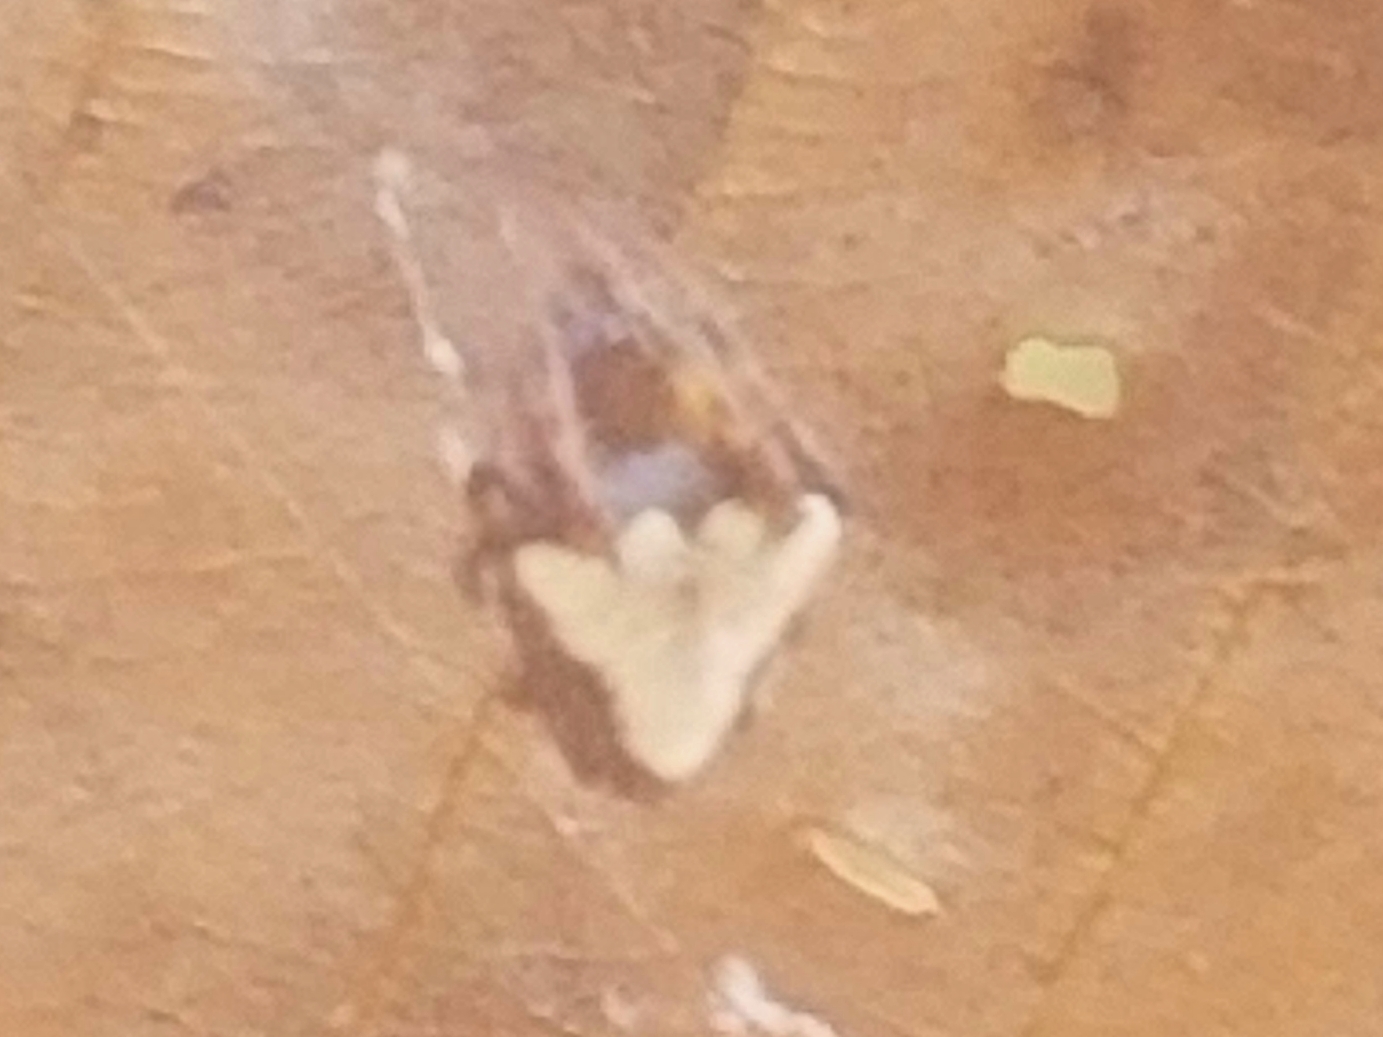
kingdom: Animalia
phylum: Arthropoda
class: Arachnida
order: Araneae
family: Araneidae
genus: Verrucosa
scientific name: Verrucosa arenata
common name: Orb weavers
